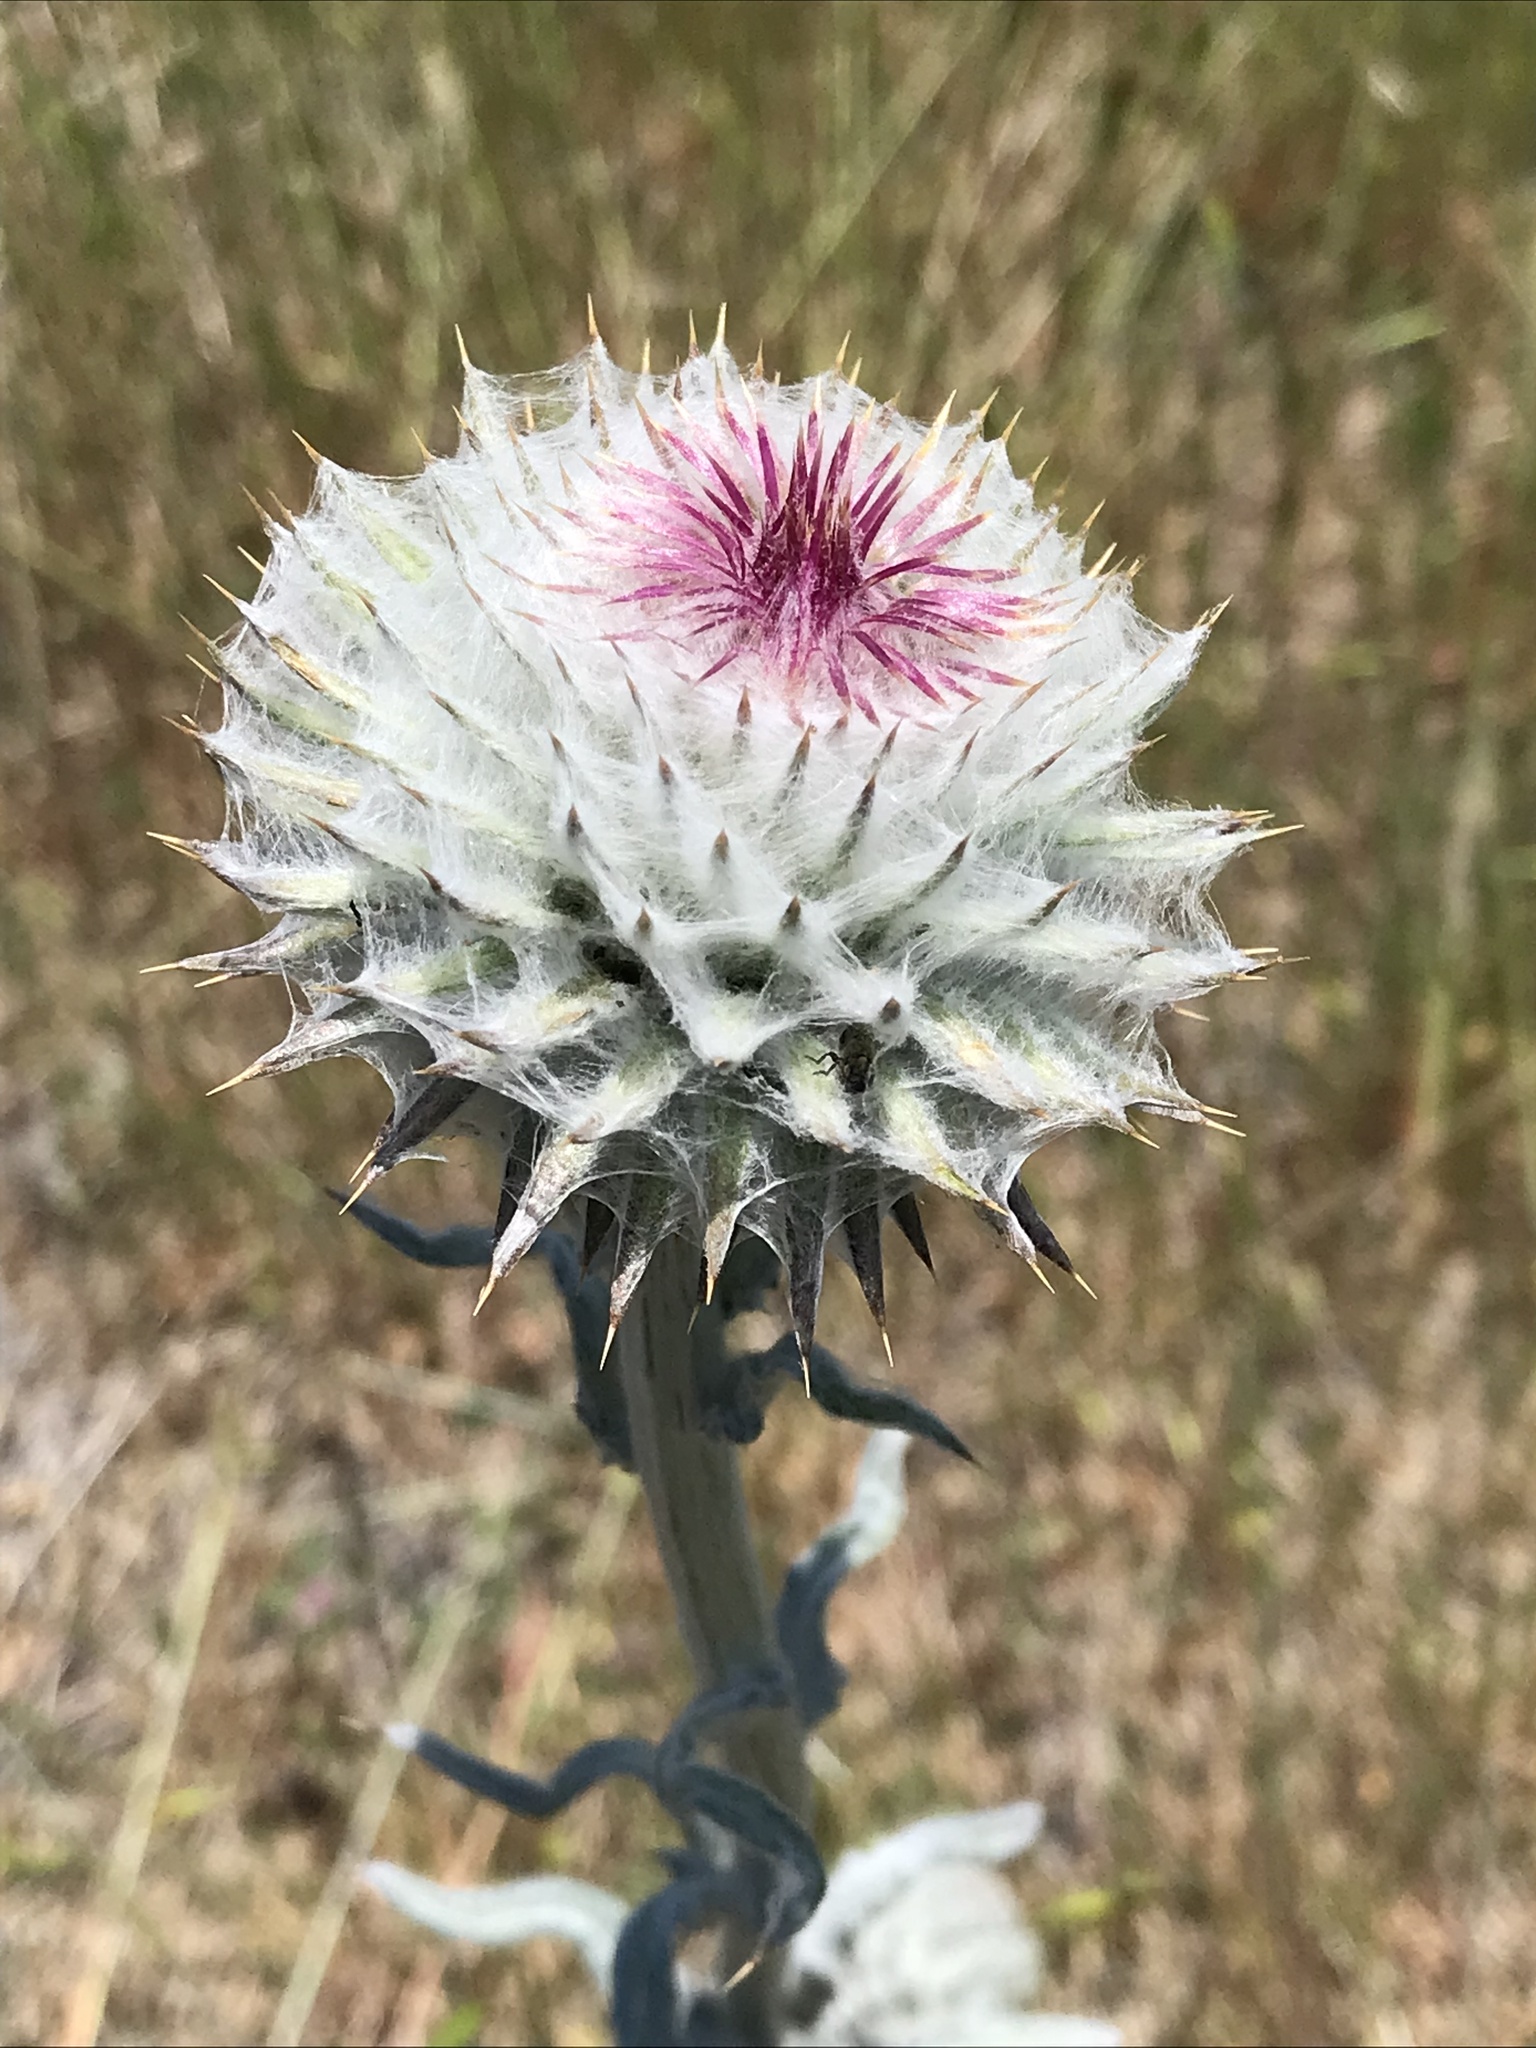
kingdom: Plantae
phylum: Tracheophyta
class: Magnoliopsida
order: Asterales
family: Asteraceae
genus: Cirsium
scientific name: Cirsium occidentale
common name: Western thistle
